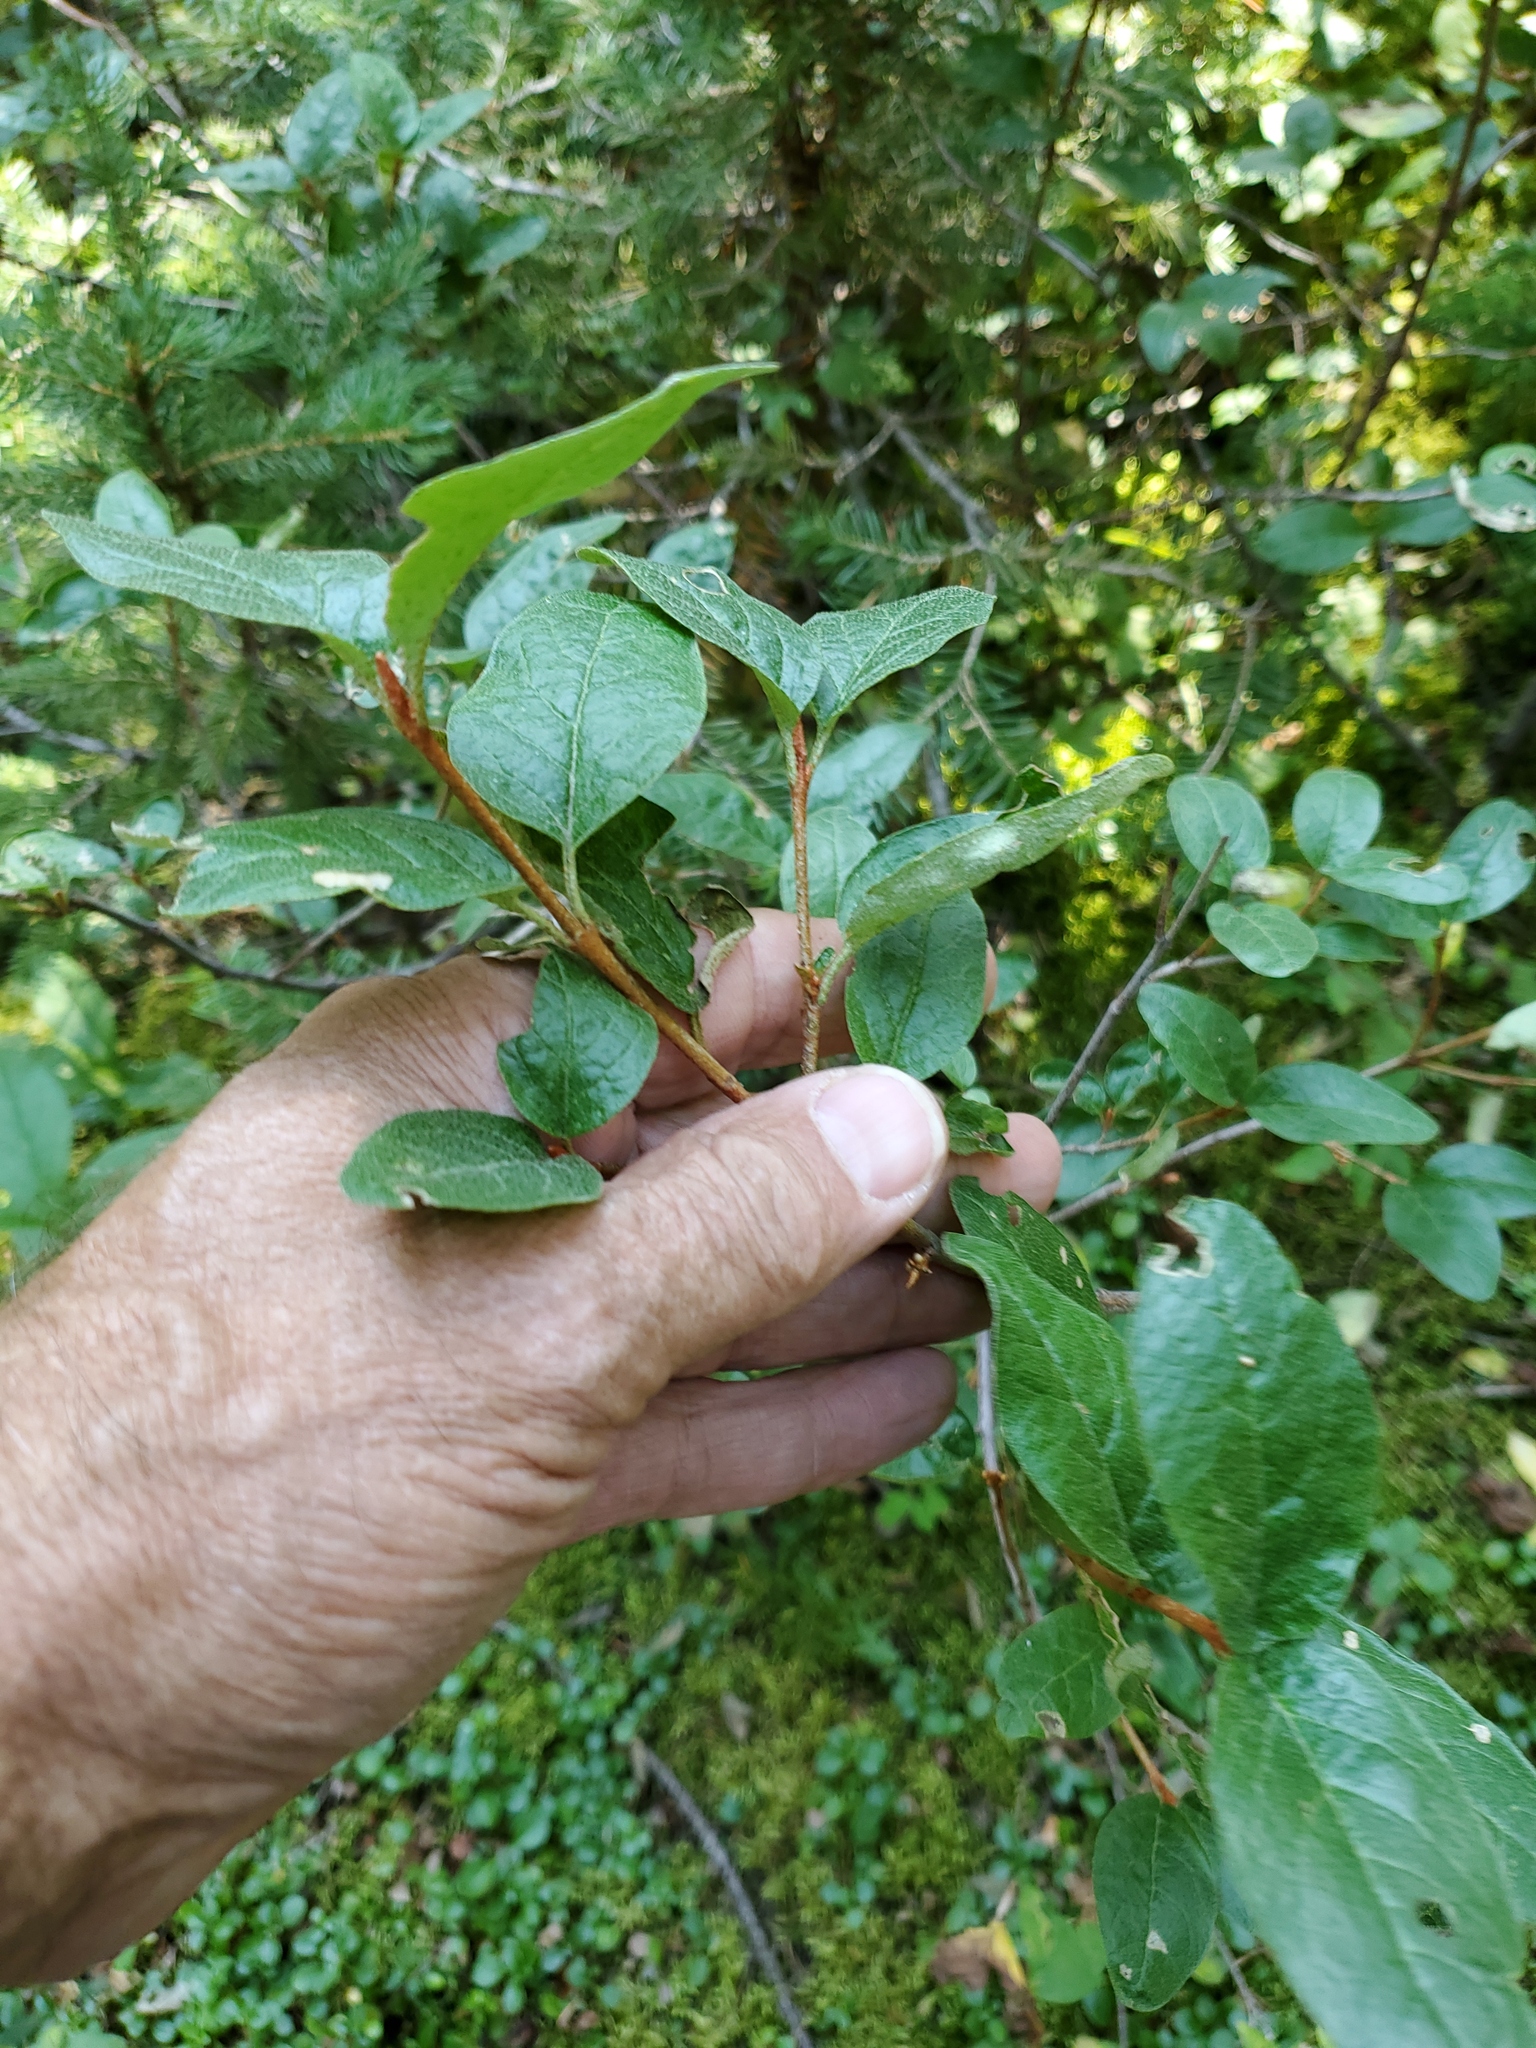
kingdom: Plantae
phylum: Tracheophyta
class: Magnoliopsida
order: Rosales
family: Elaeagnaceae
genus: Shepherdia
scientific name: Shepherdia canadensis
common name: Soapberry
